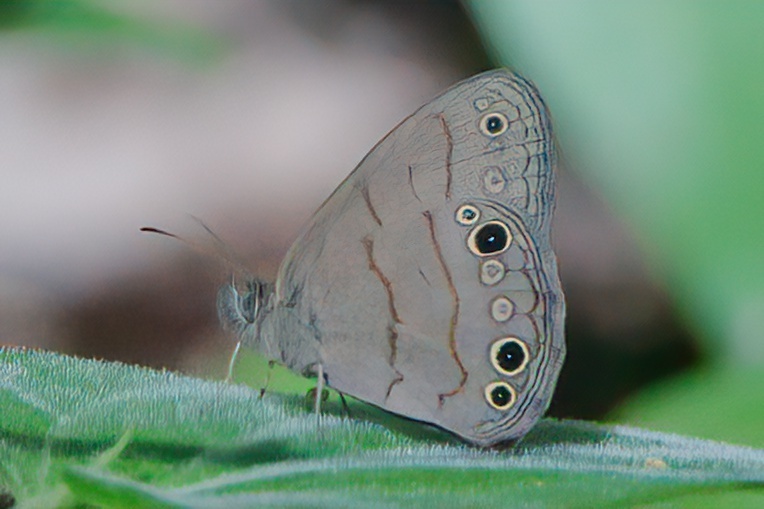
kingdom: Animalia
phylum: Arthropoda
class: Insecta
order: Lepidoptera
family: Nymphalidae
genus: Hermeuptychia
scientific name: Hermeuptychia intricata
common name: Intricate satyr
